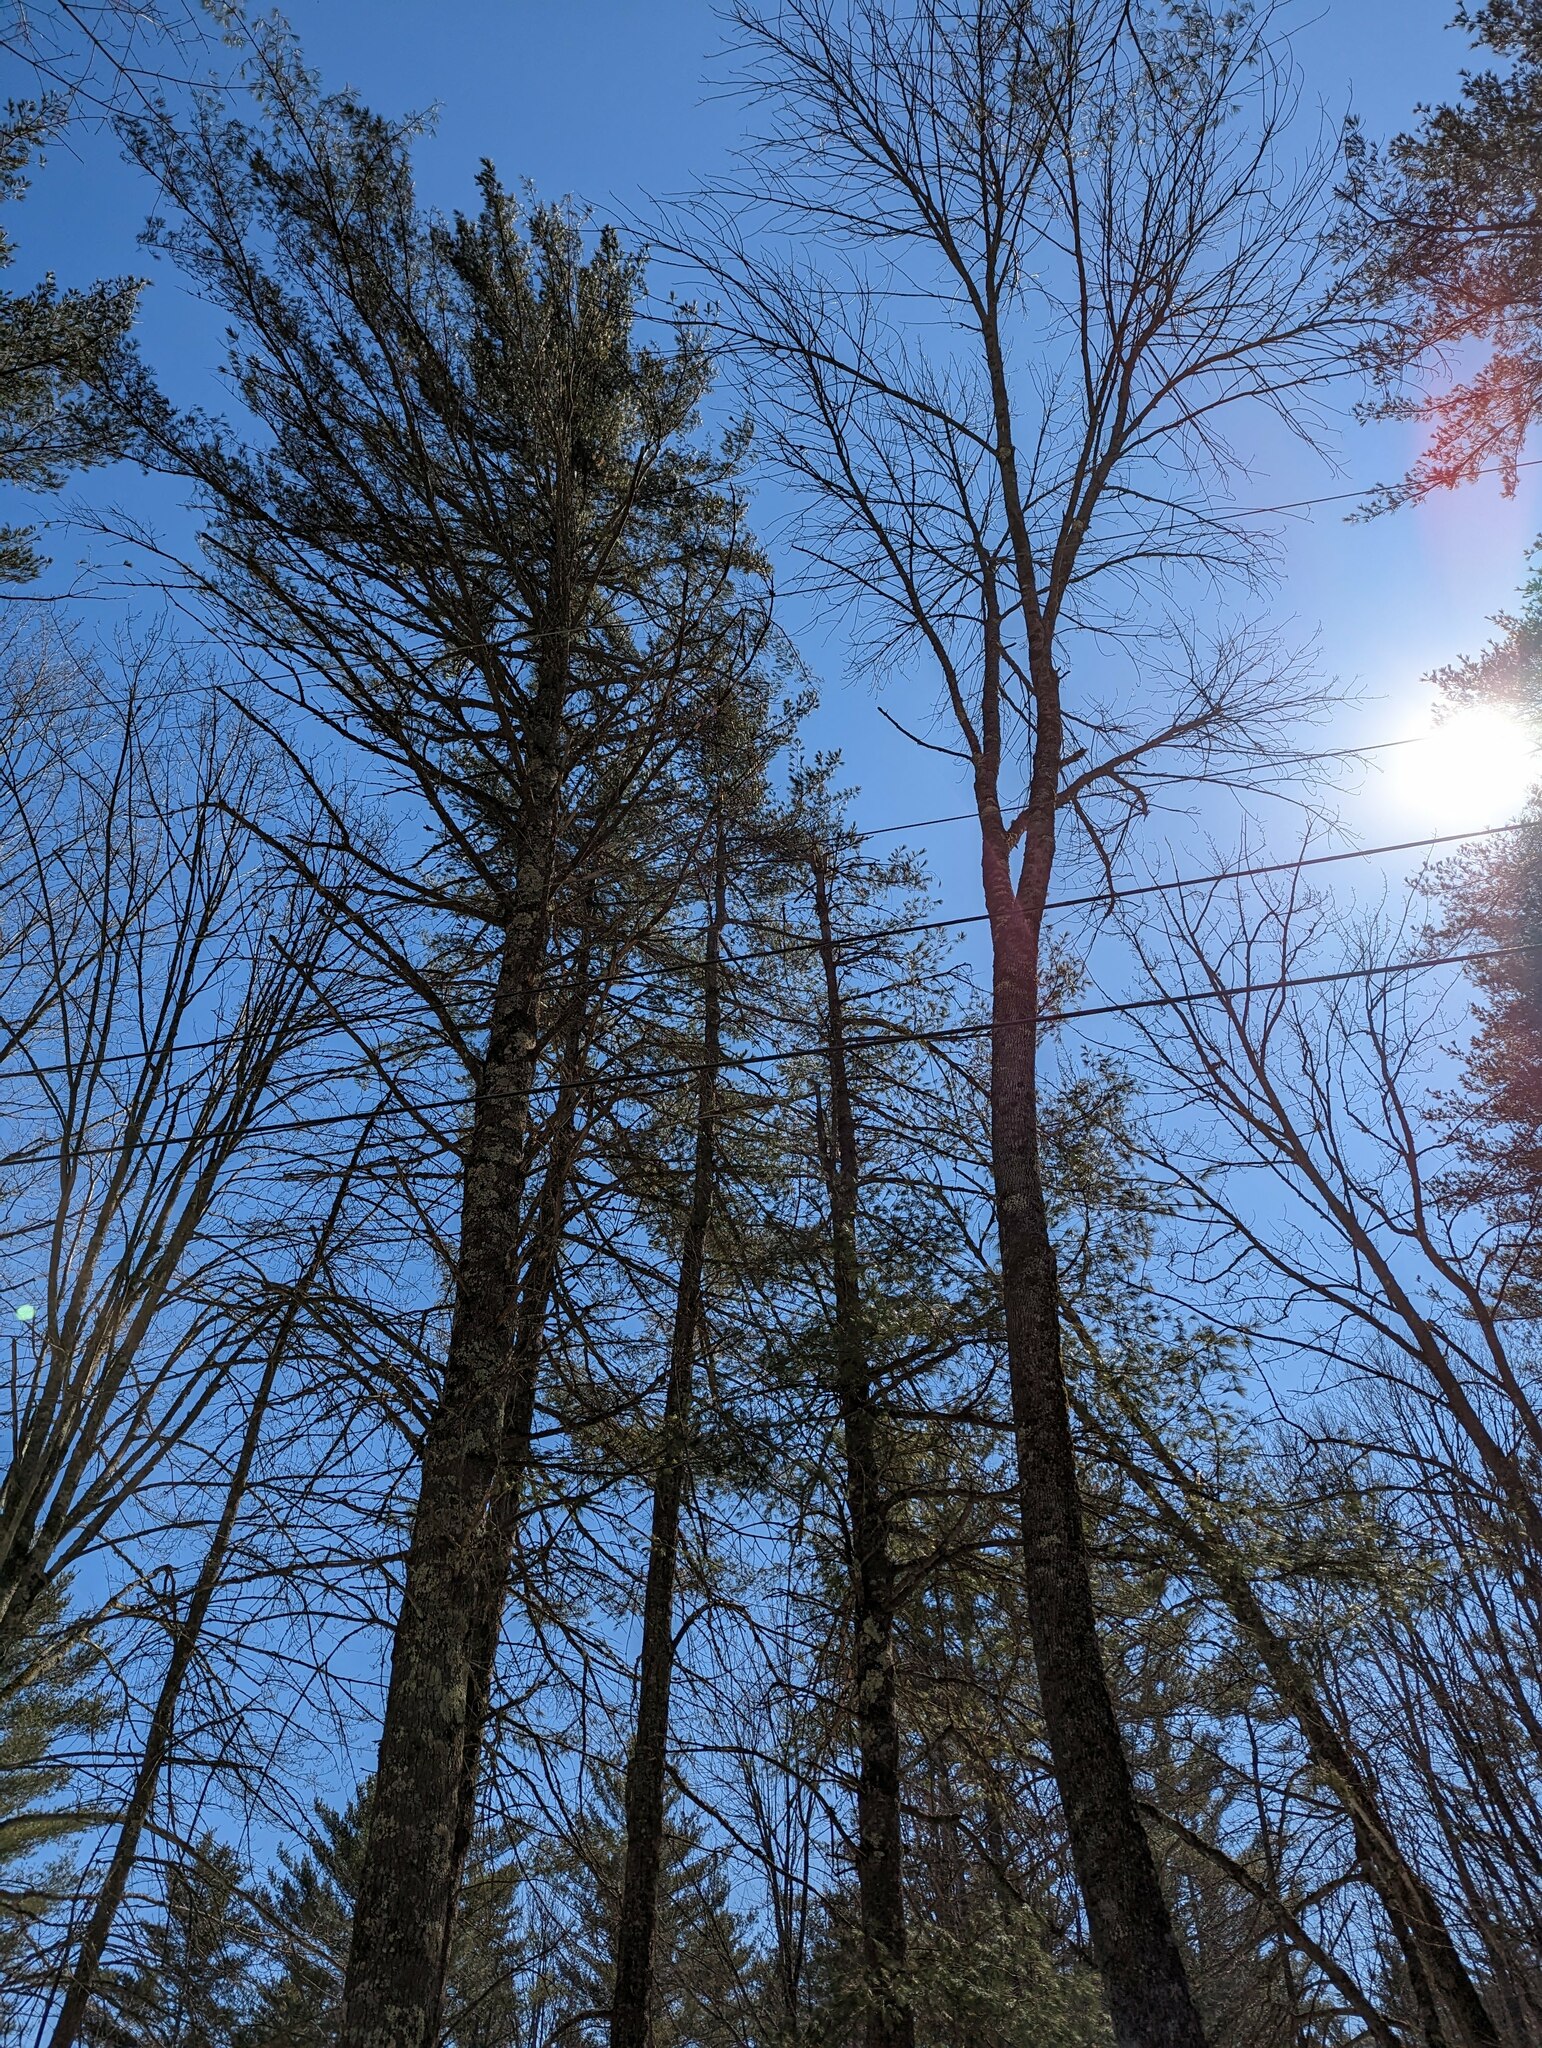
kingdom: Plantae
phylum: Tracheophyta
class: Pinopsida
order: Pinales
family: Pinaceae
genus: Pinus
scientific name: Pinus strobus
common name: Weymouth pine
